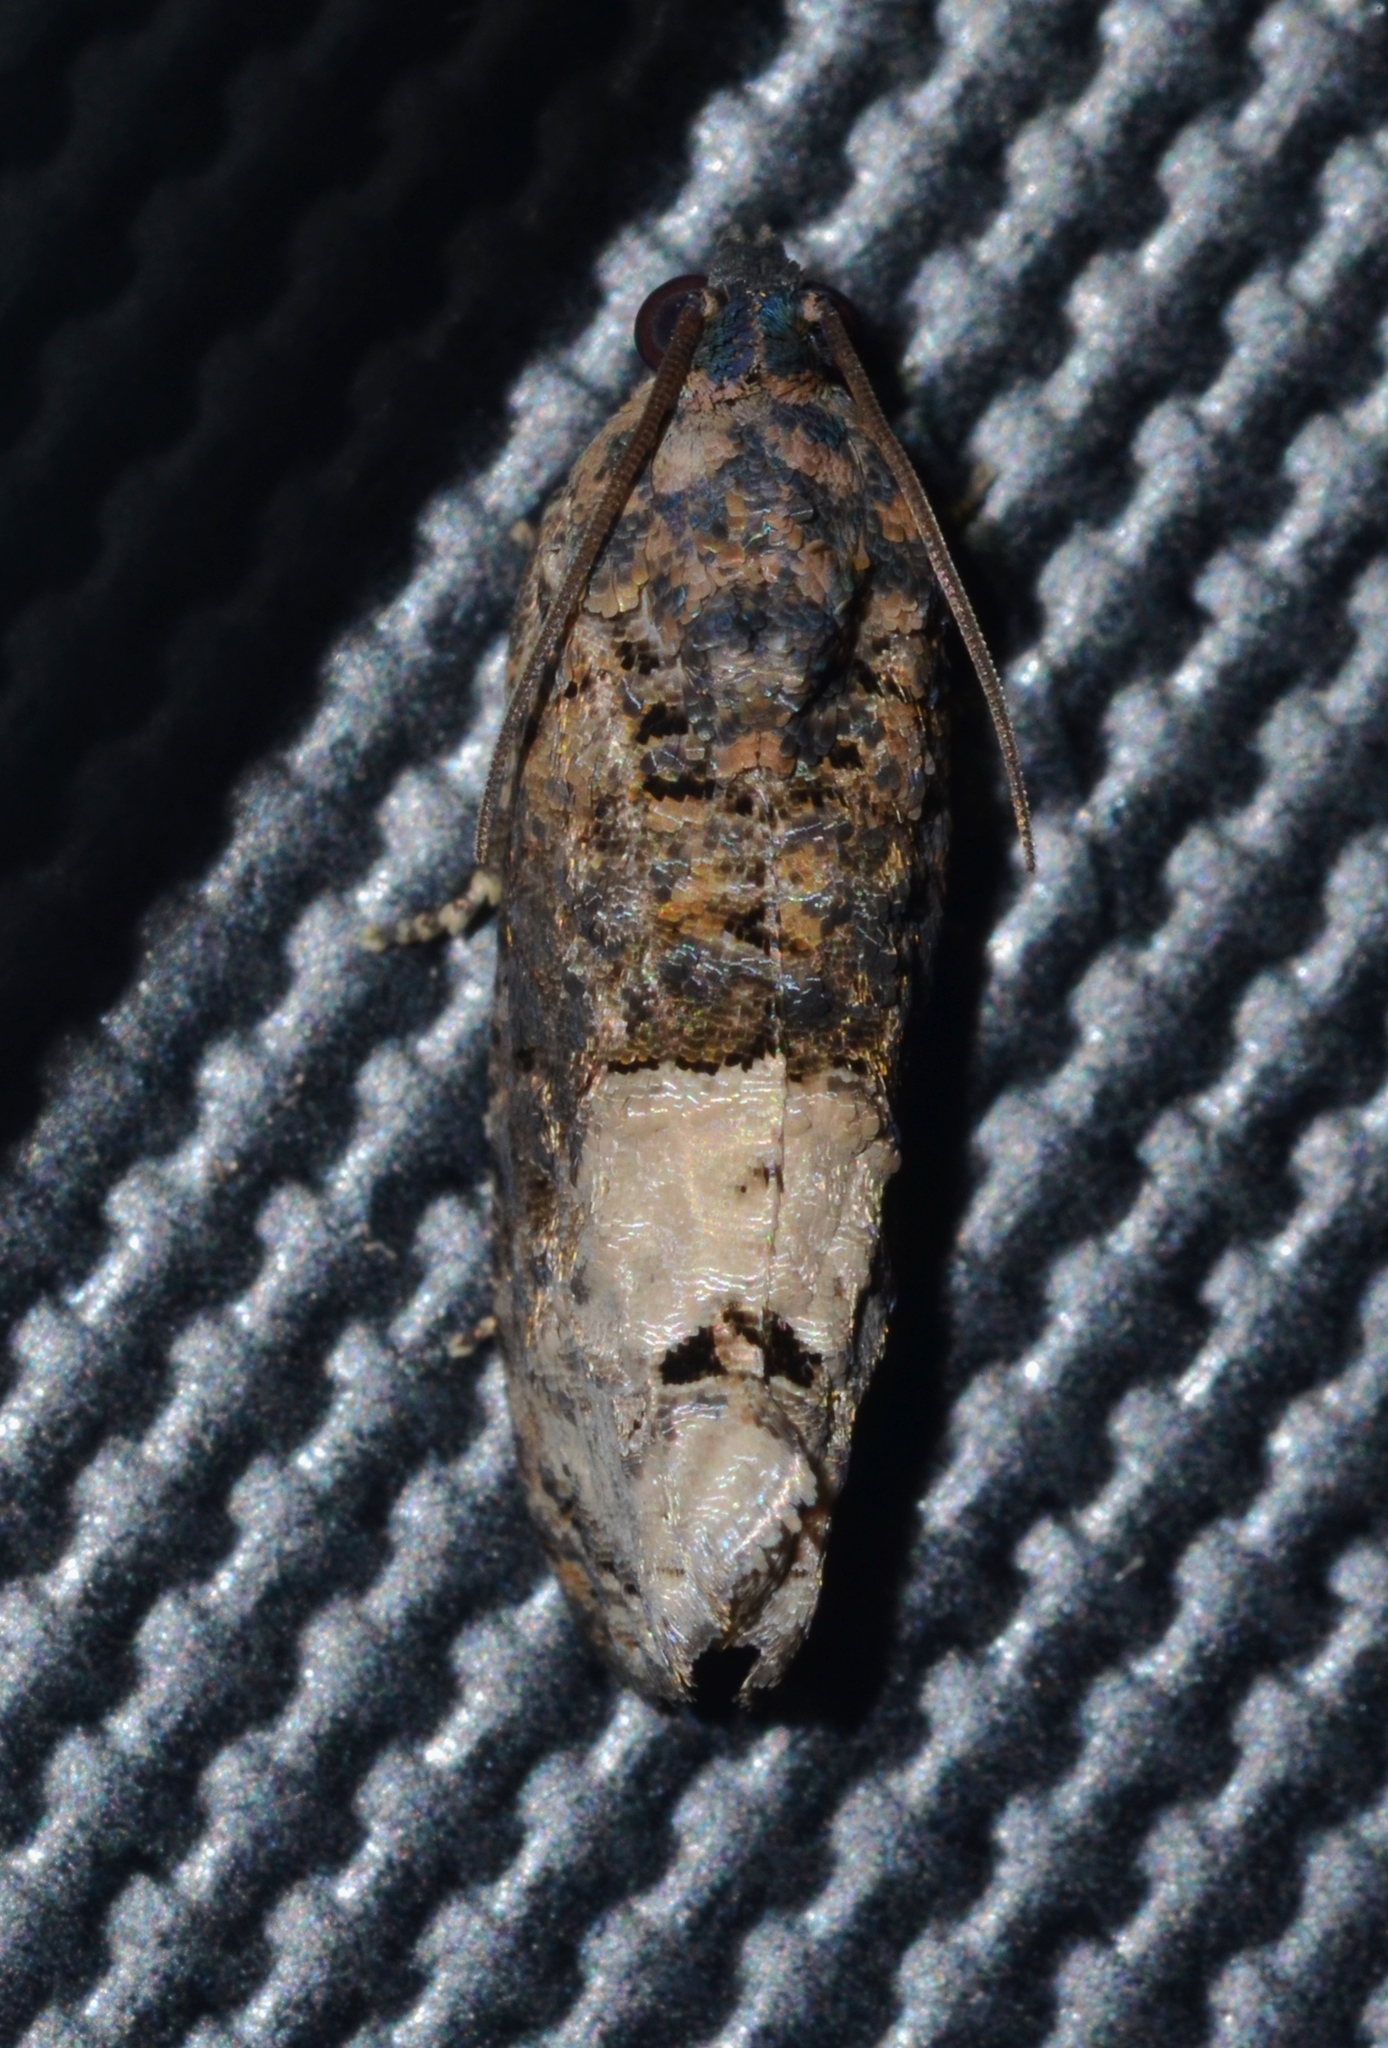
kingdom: Animalia
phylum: Arthropoda
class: Insecta
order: Lepidoptera
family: Tortricidae
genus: Ecdytolopha
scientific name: Ecdytolopha insiticiana
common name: Locust twig borer moth
